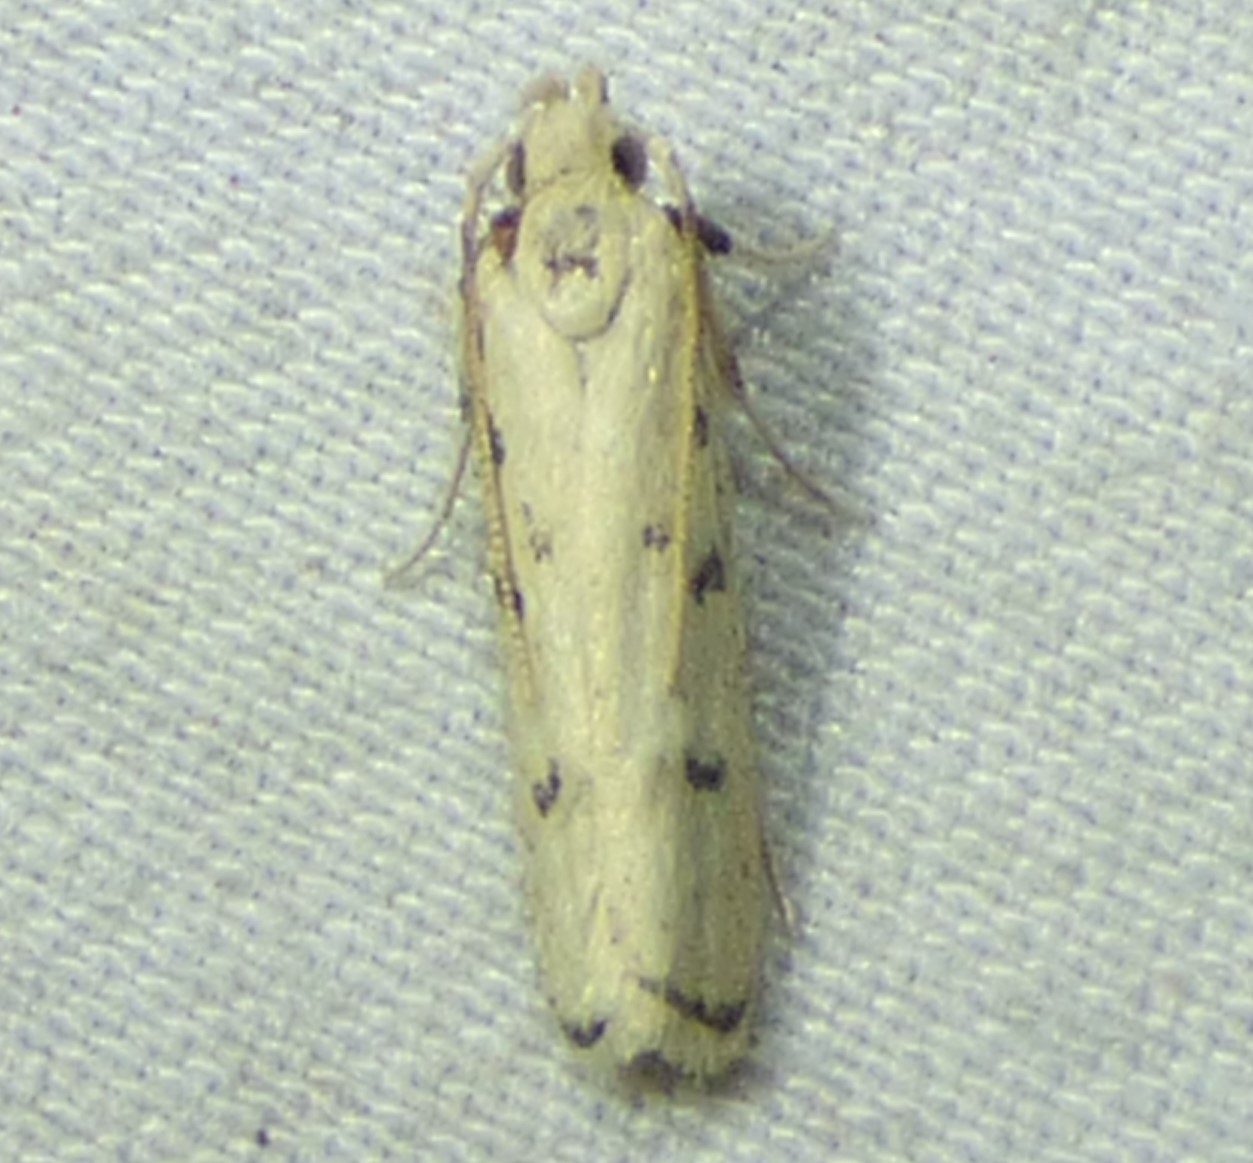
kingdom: Animalia
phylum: Arthropoda
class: Insecta
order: Lepidoptera
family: Autostichidae
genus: Glyphidocera
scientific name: Glyphidocera lactiflosella
